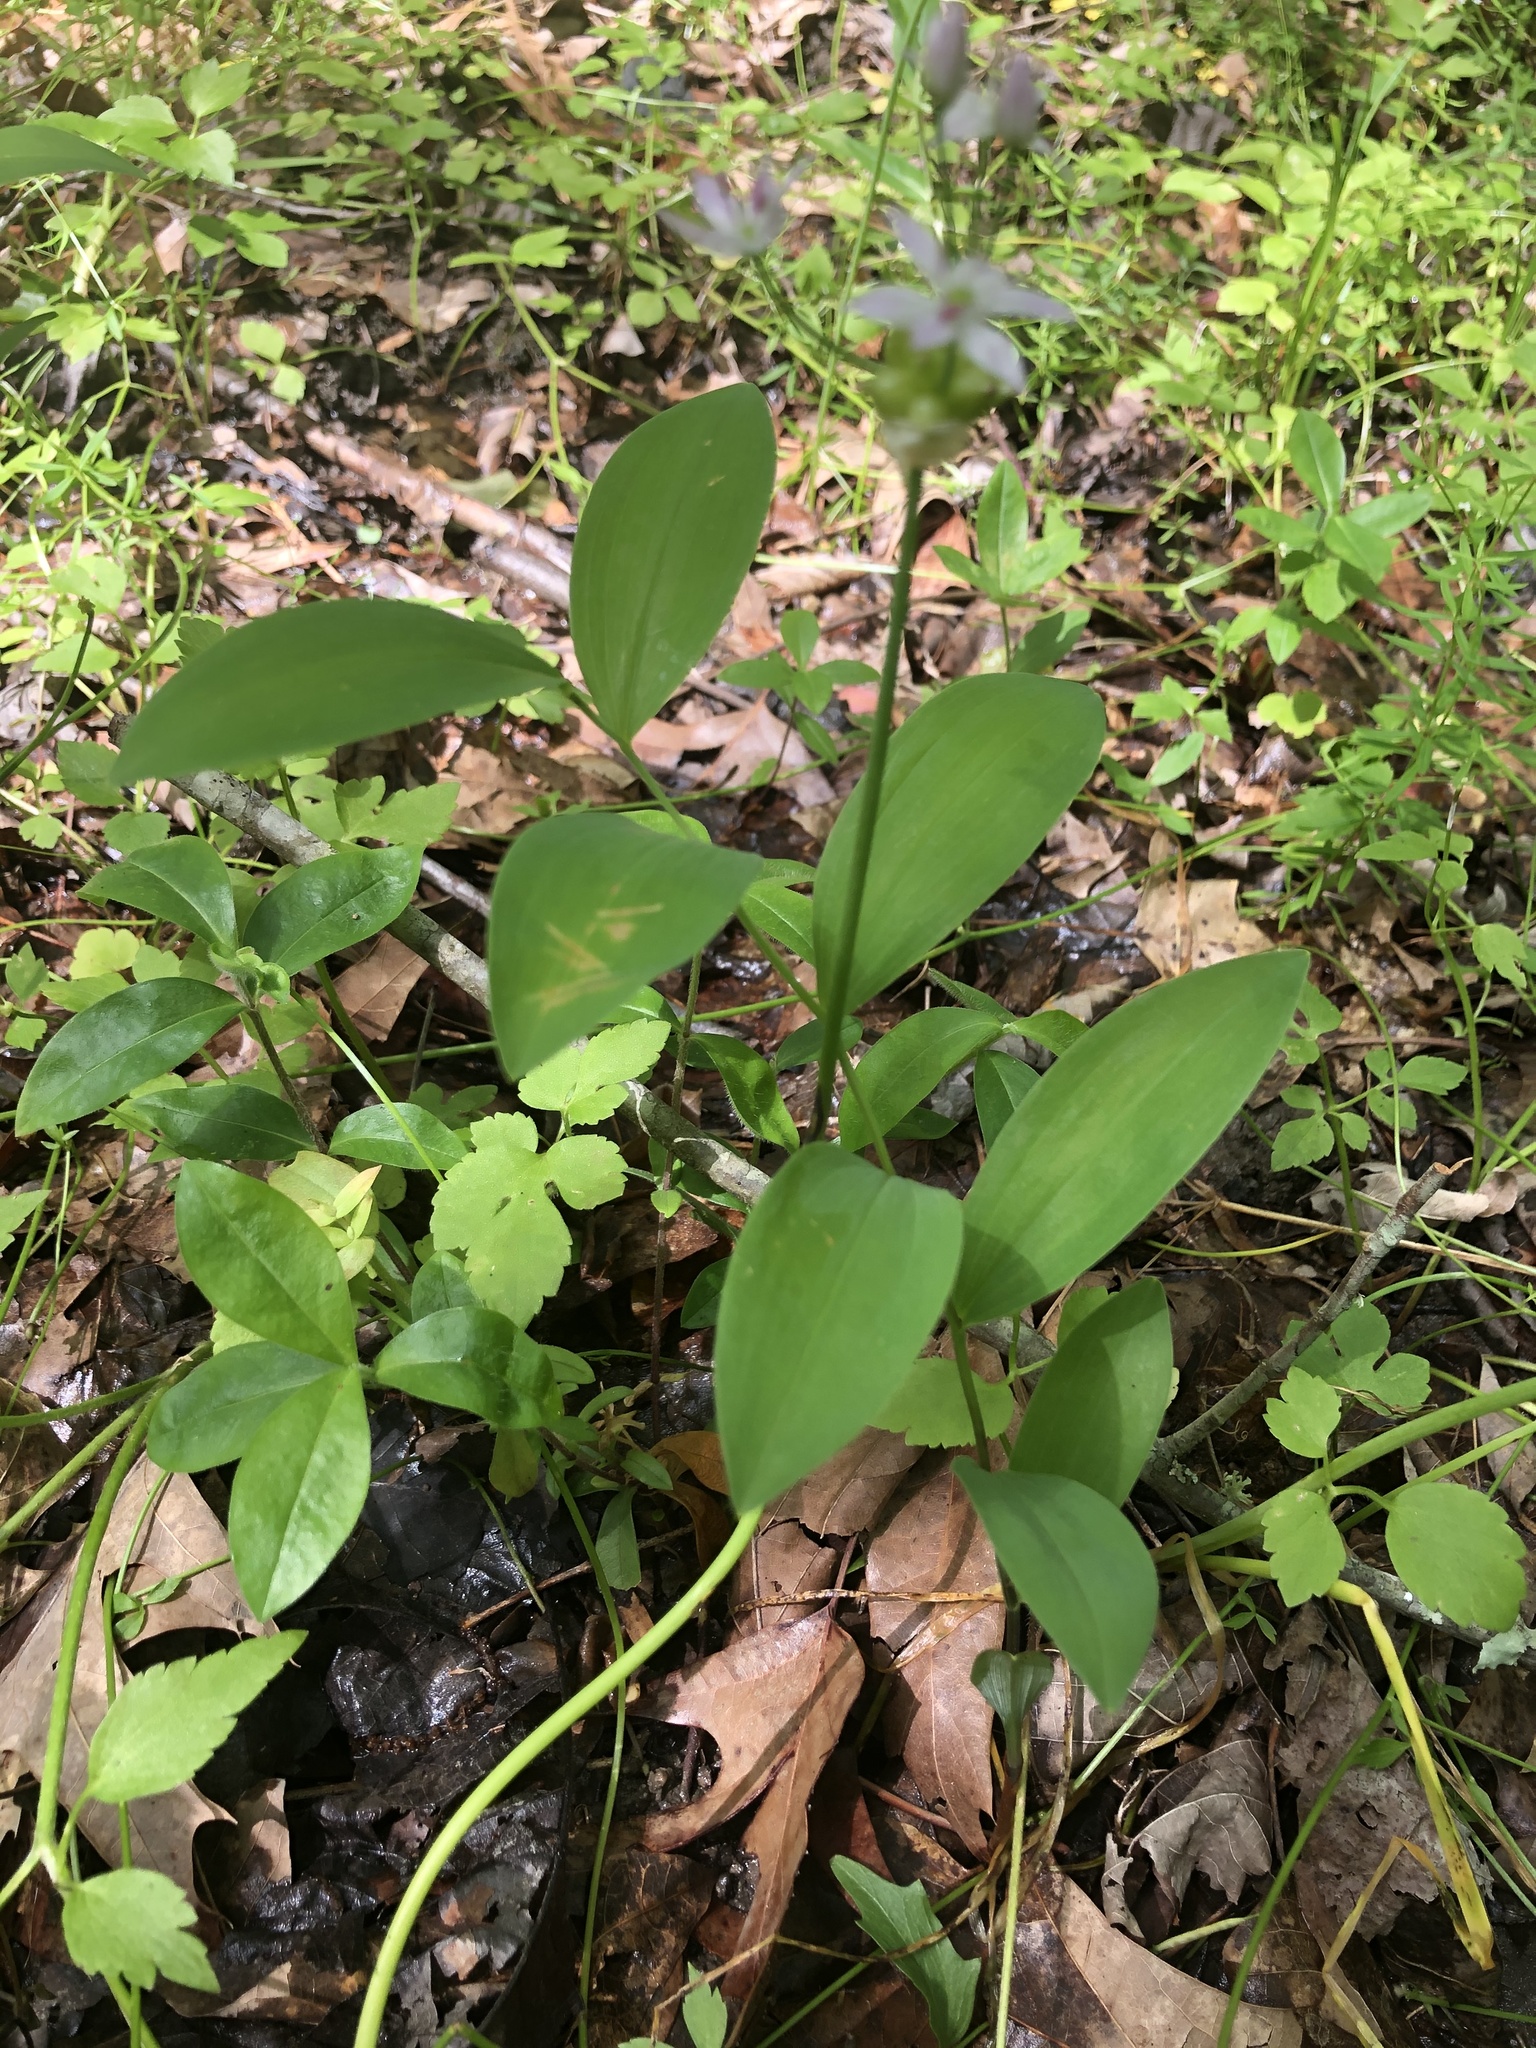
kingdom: Plantae
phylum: Tracheophyta
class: Liliopsida
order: Liliales
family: Colchicaceae
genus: Uvularia
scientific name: Uvularia floridana
